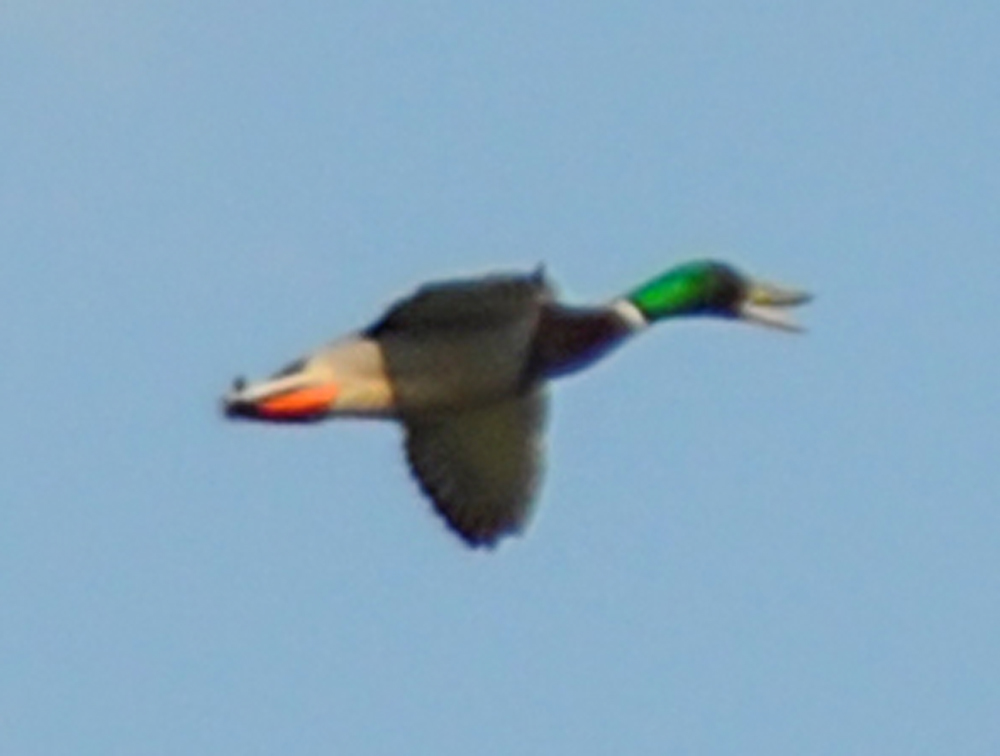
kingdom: Animalia
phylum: Chordata
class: Aves
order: Anseriformes
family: Anatidae
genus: Anas
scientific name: Anas platyrhynchos
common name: Mallard
